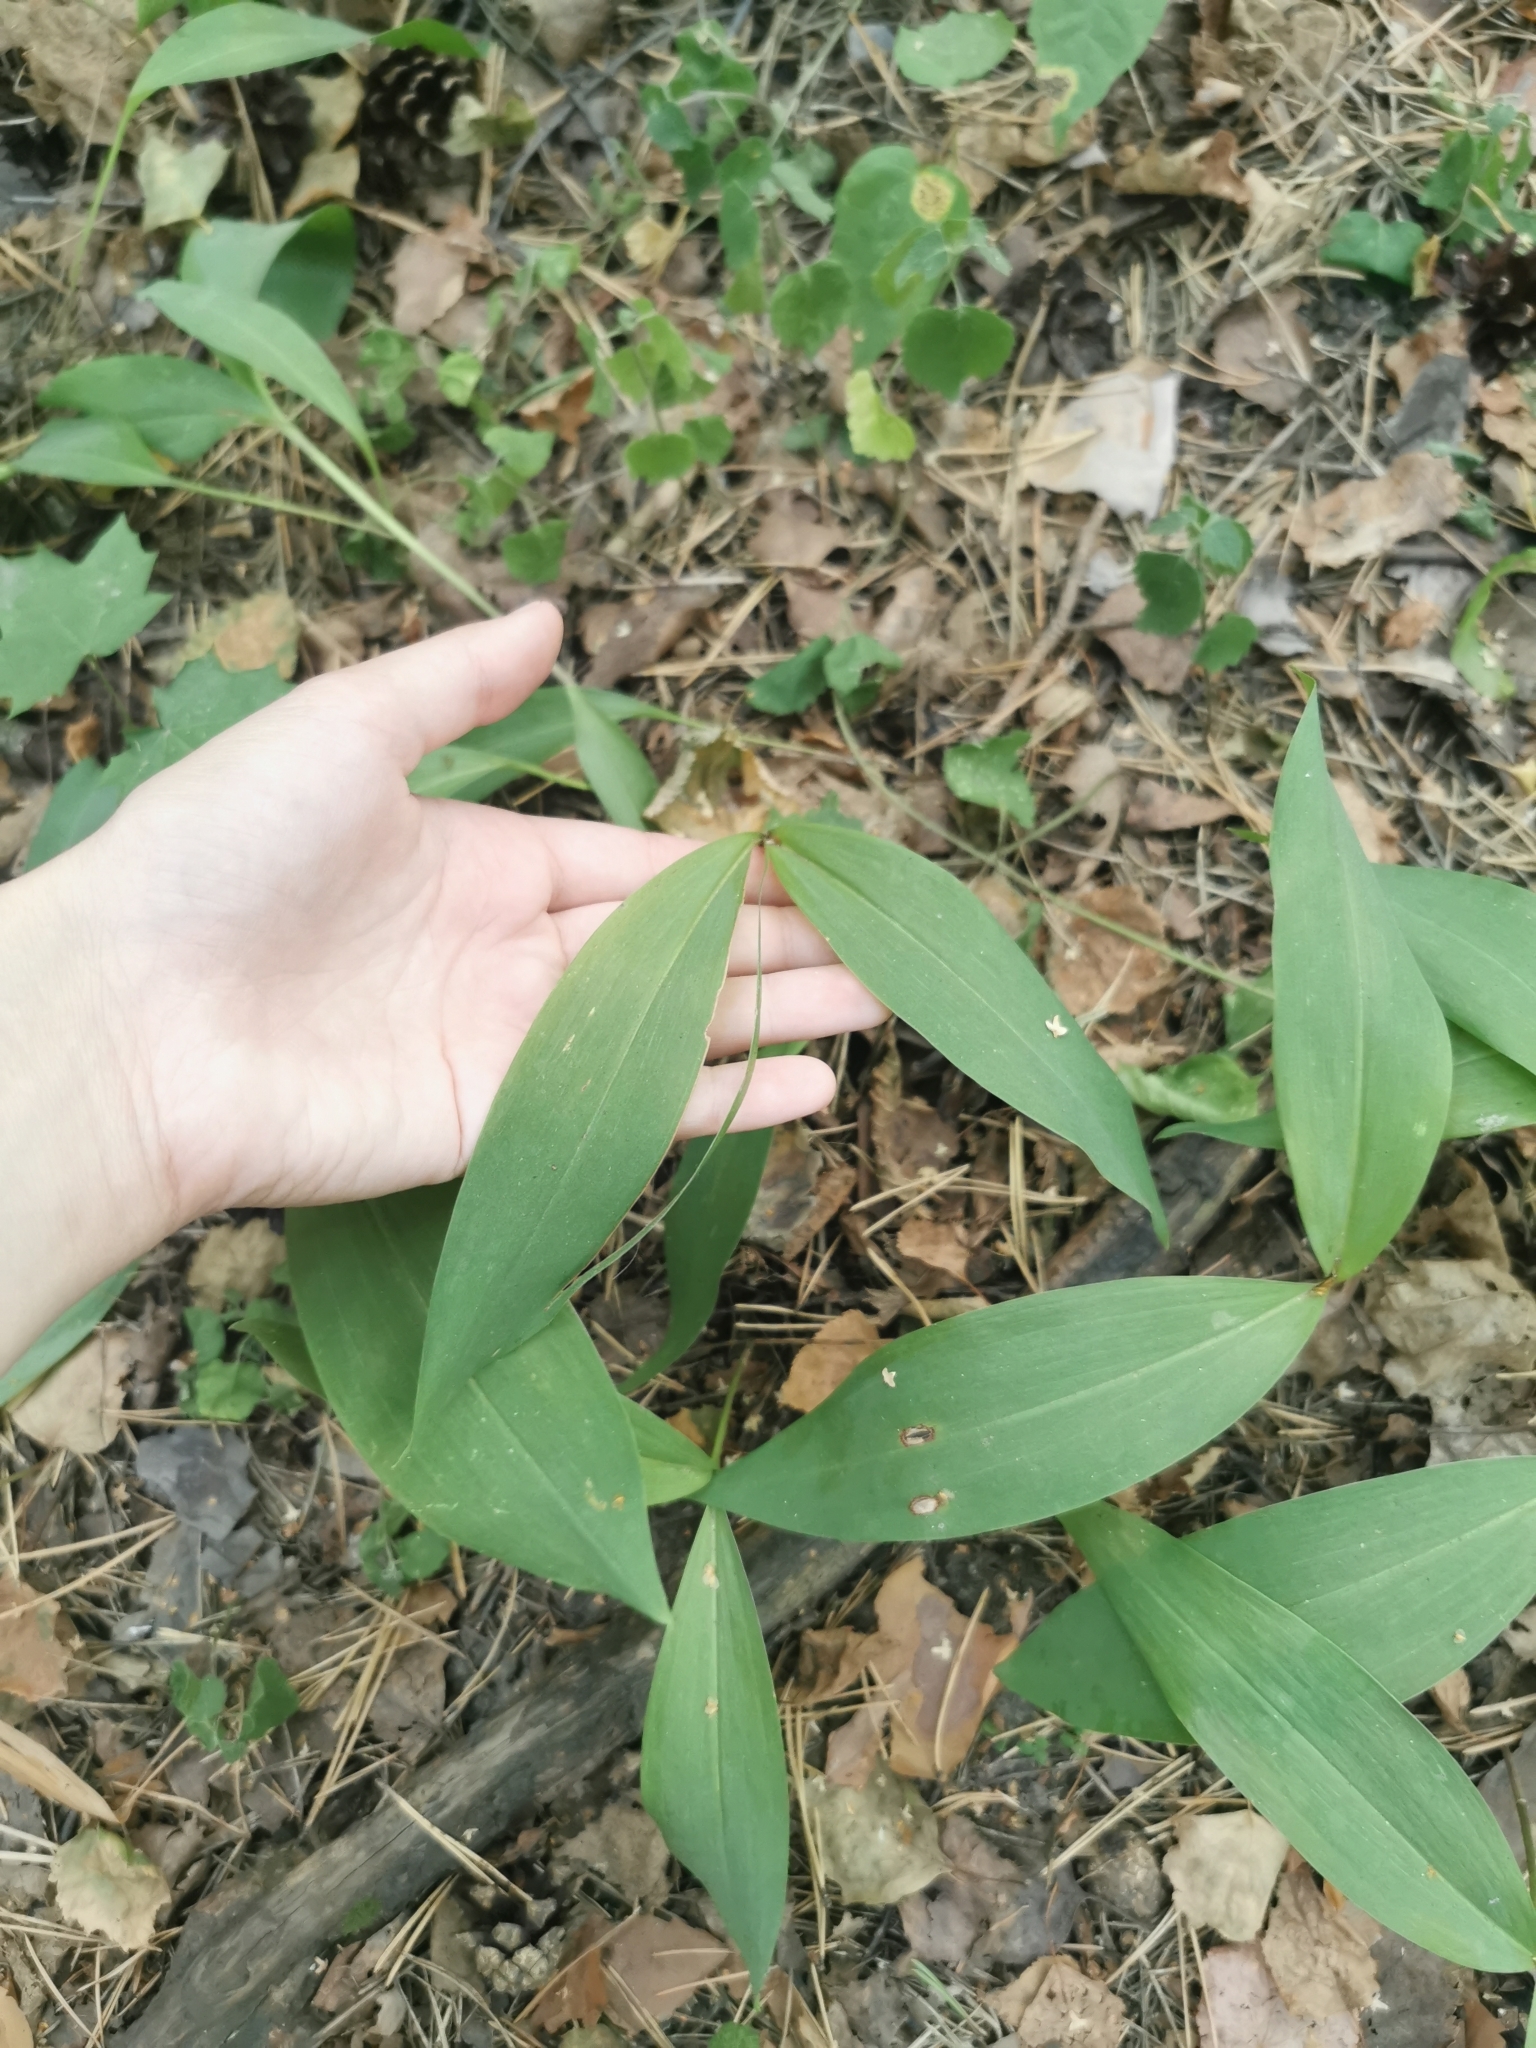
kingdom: Plantae
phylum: Tracheophyta
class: Liliopsida
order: Asparagales
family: Asparagaceae
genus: Convallaria
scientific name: Convallaria majalis
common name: Lily-of-the-valley
